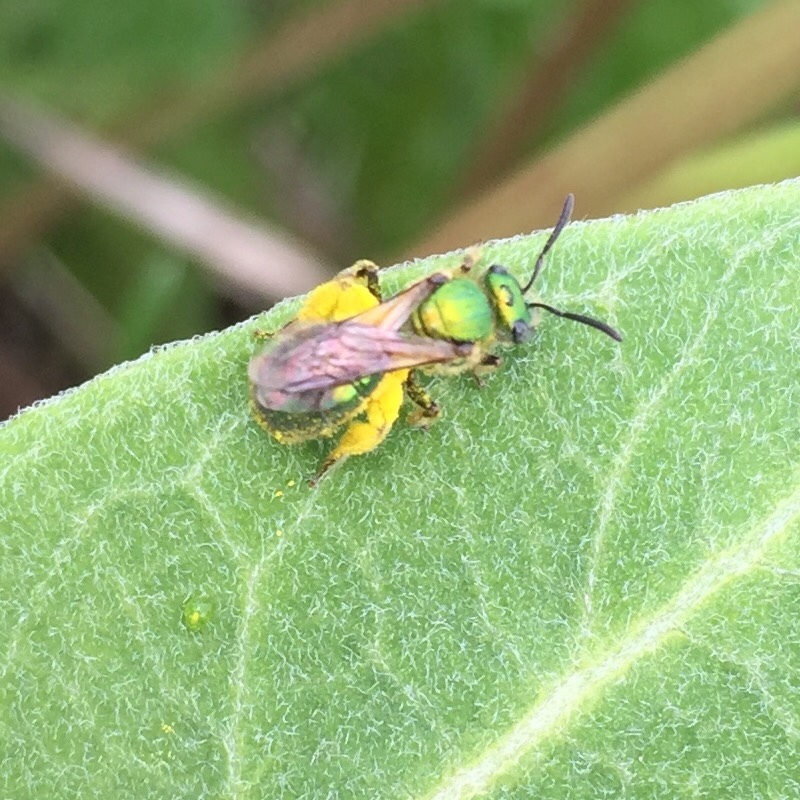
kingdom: Animalia
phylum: Arthropoda
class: Insecta
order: Hymenoptera
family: Halictidae
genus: Augochlora
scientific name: Augochlora pura
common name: Pure green sweat bee
